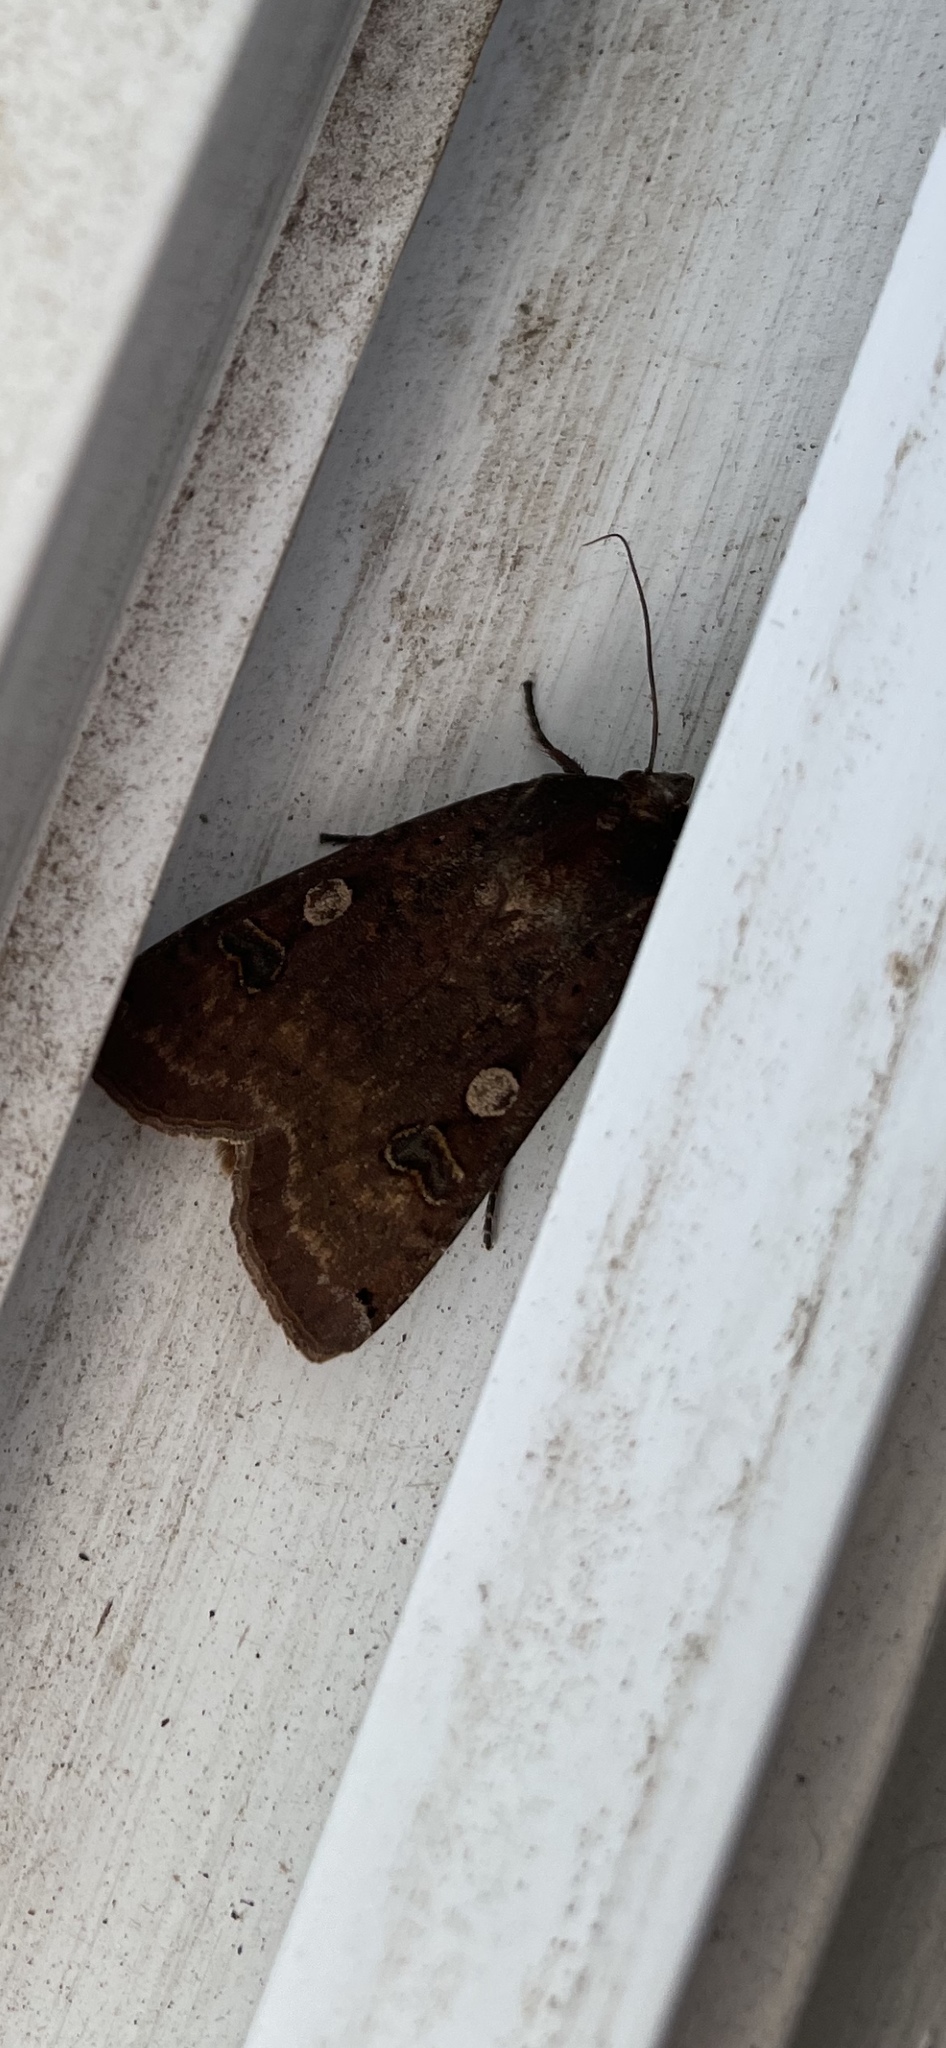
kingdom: Animalia
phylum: Arthropoda
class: Insecta
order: Lepidoptera
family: Noctuidae
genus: Noctua
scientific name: Noctua pronuba
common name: Large yellow underwing
